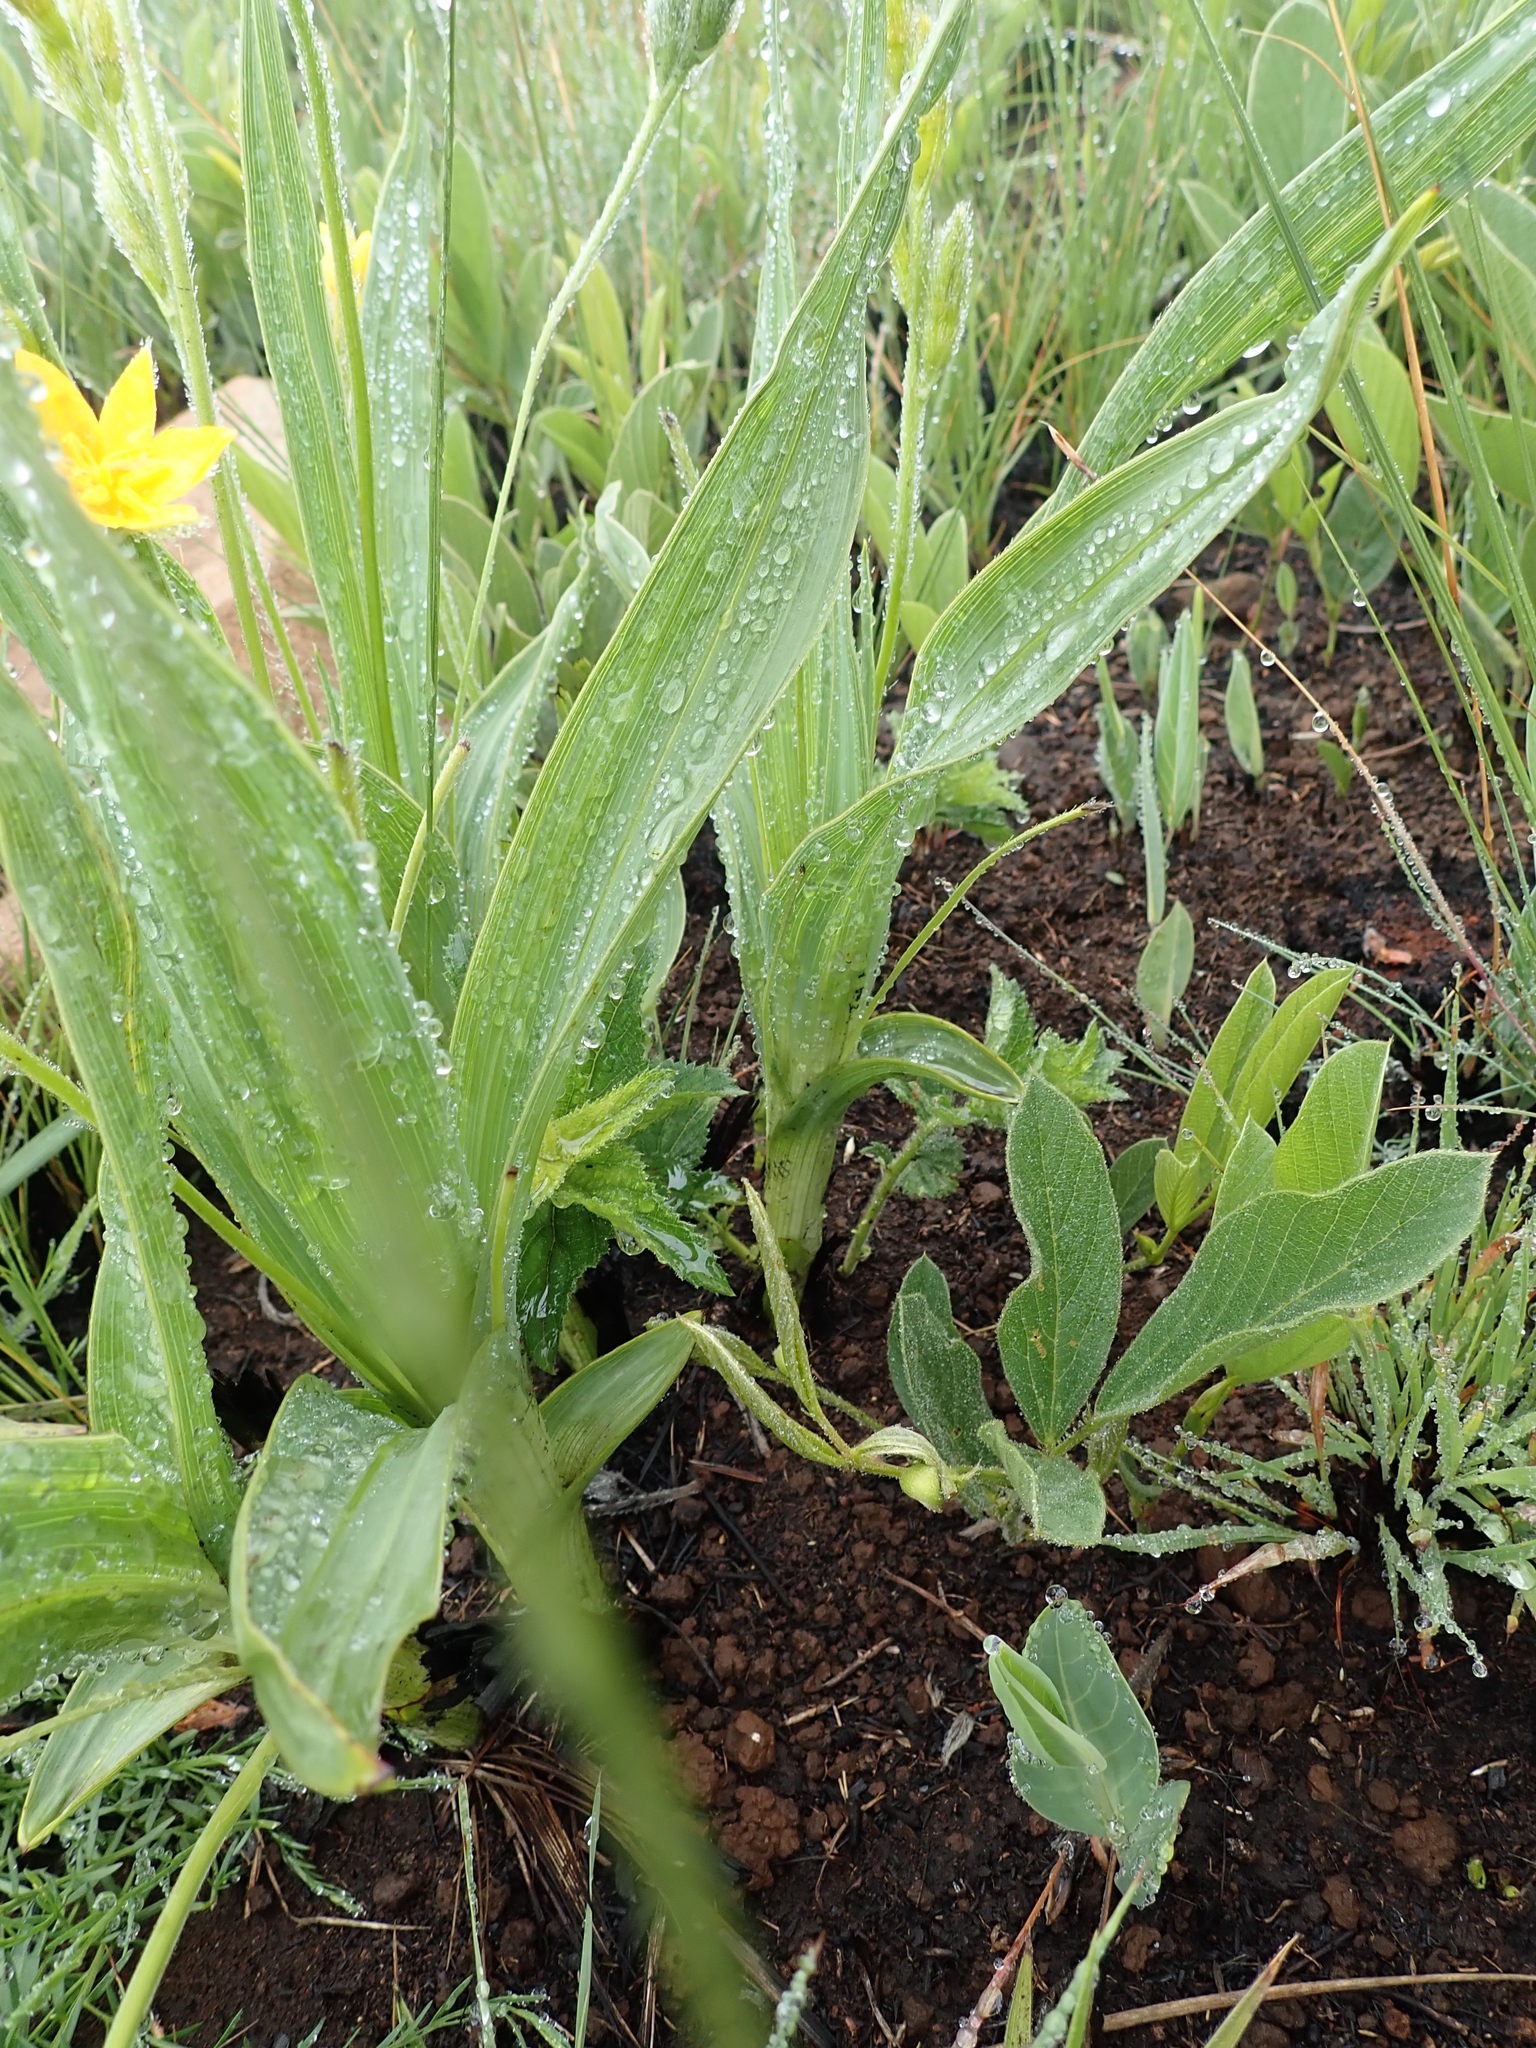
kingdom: Plantae
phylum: Tracheophyta
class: Liliopsida
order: Asparagales
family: Hypoxidaceae
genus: Hypoxis
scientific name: Hypoxis galpinii
